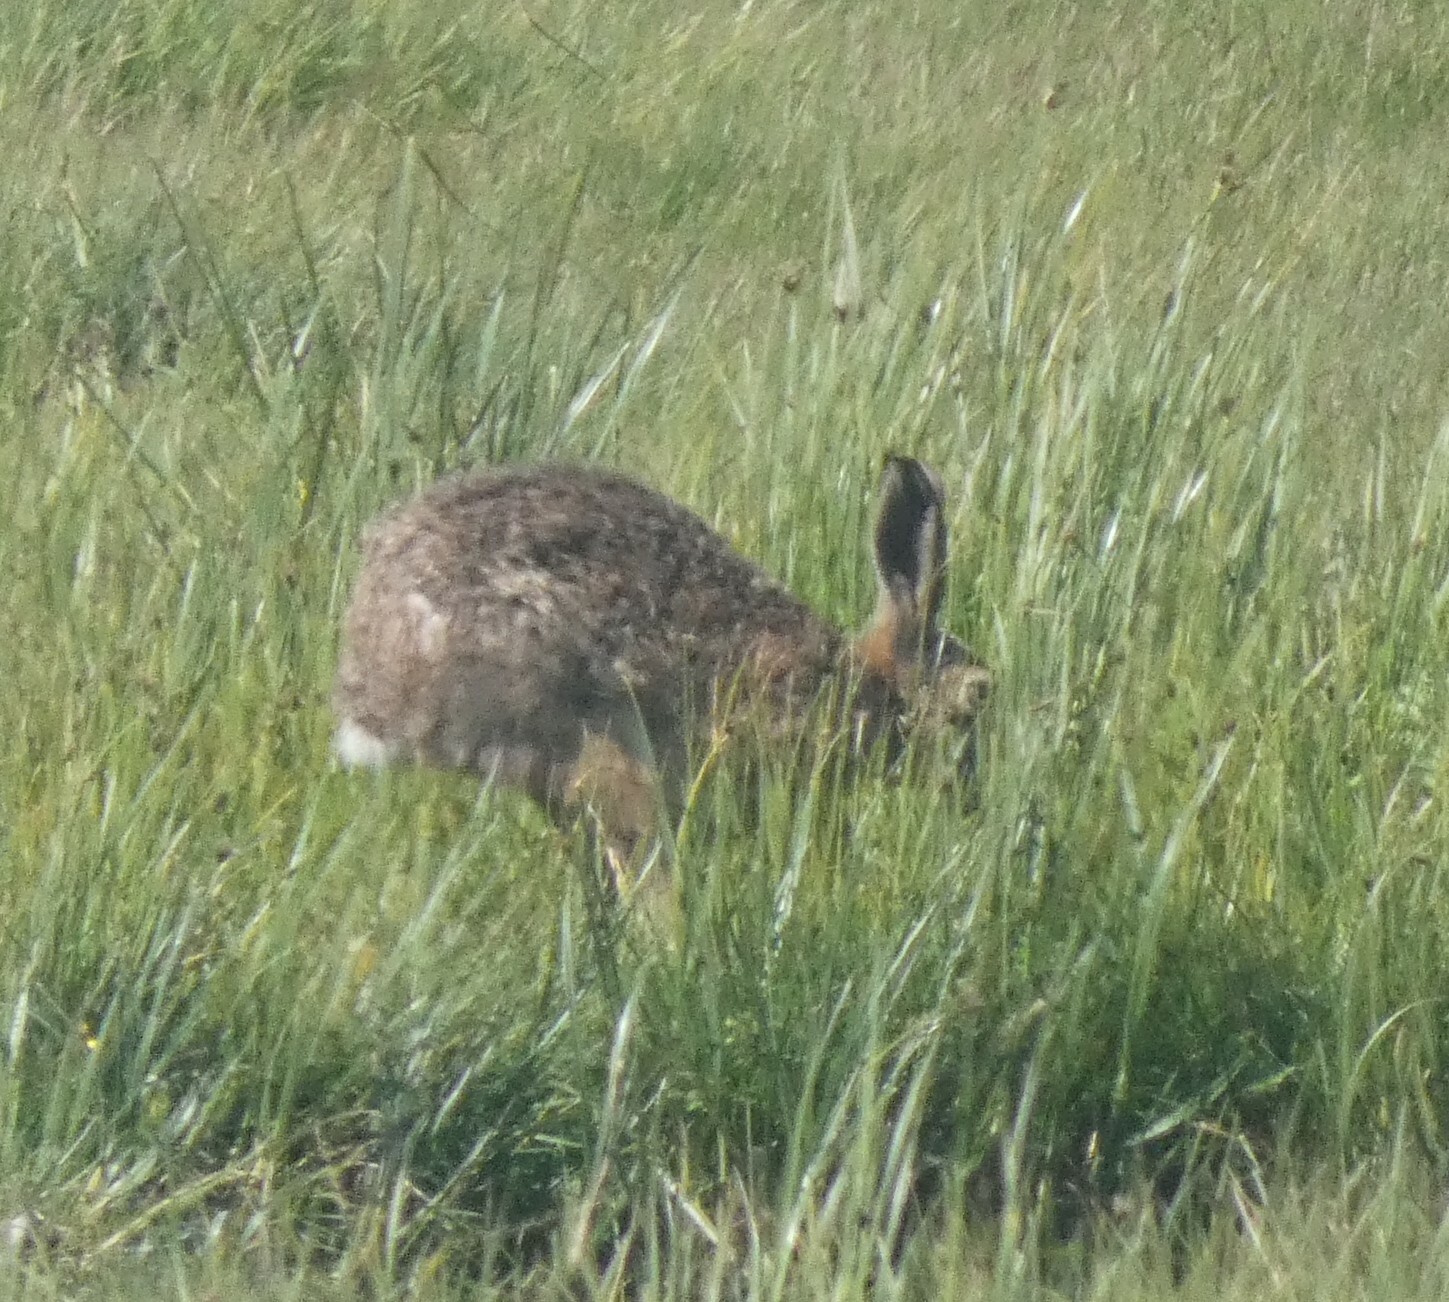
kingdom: Animalia
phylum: Chordata
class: Mammalia
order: Lagomorpha
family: Leporidae
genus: Lepus
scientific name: Lepus europaeus
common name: European hare
